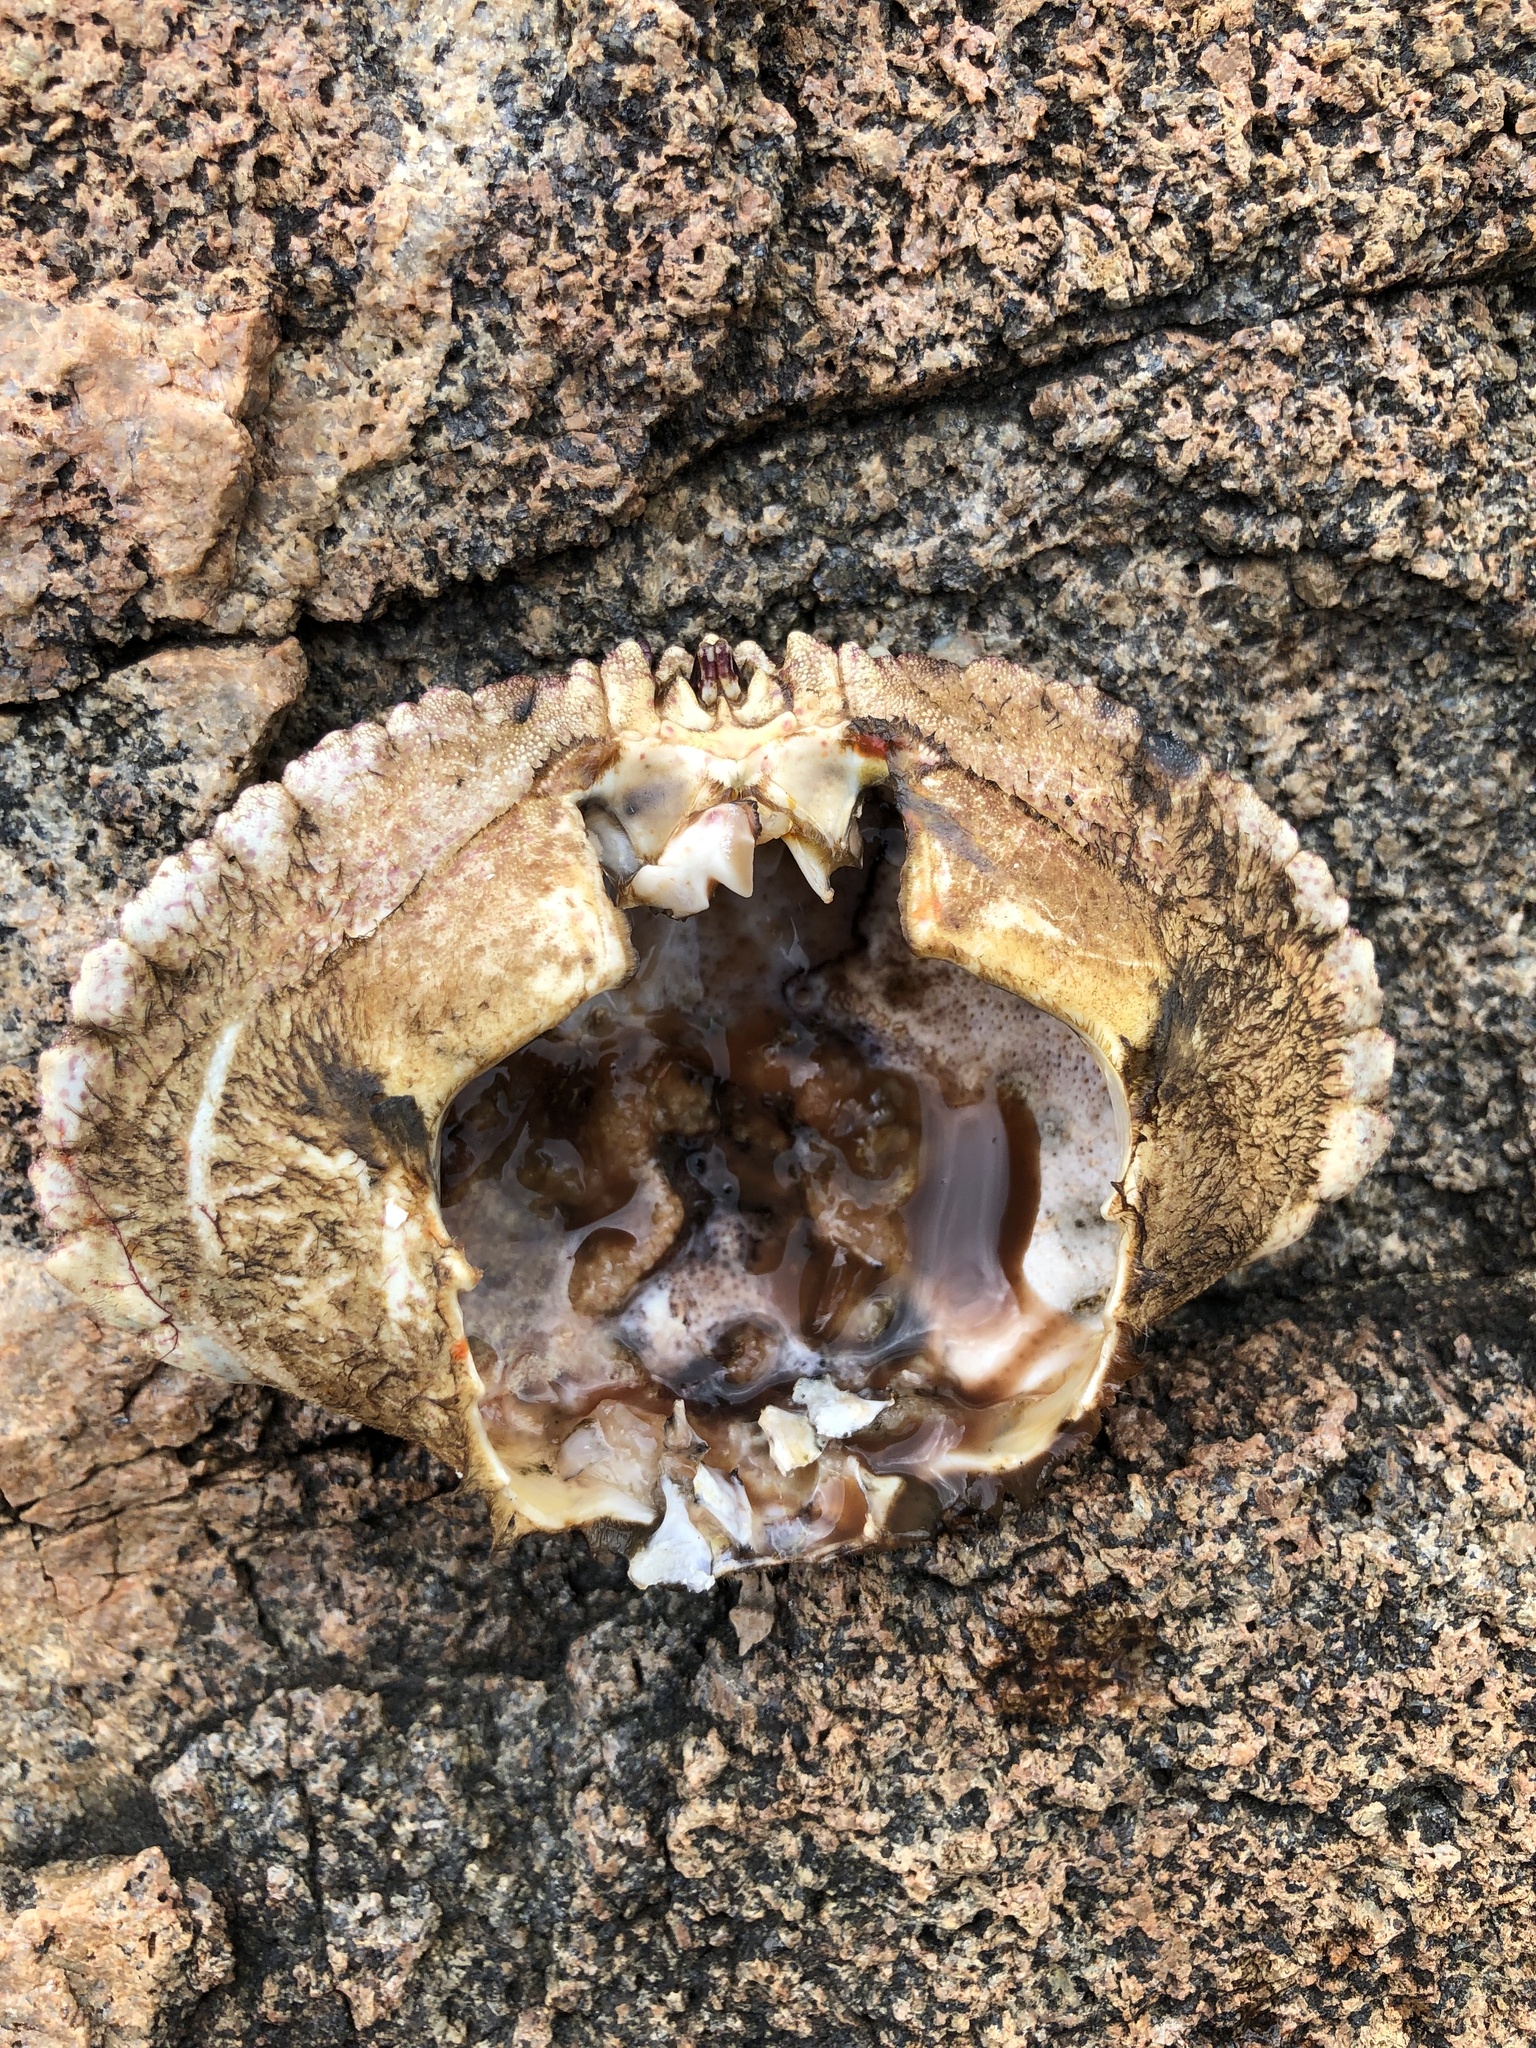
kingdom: Animalia
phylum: Arthropoda
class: Malacostraca
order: Decapoda
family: Cancridae
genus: Cancer
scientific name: Cancer borealis
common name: Jonah crab
